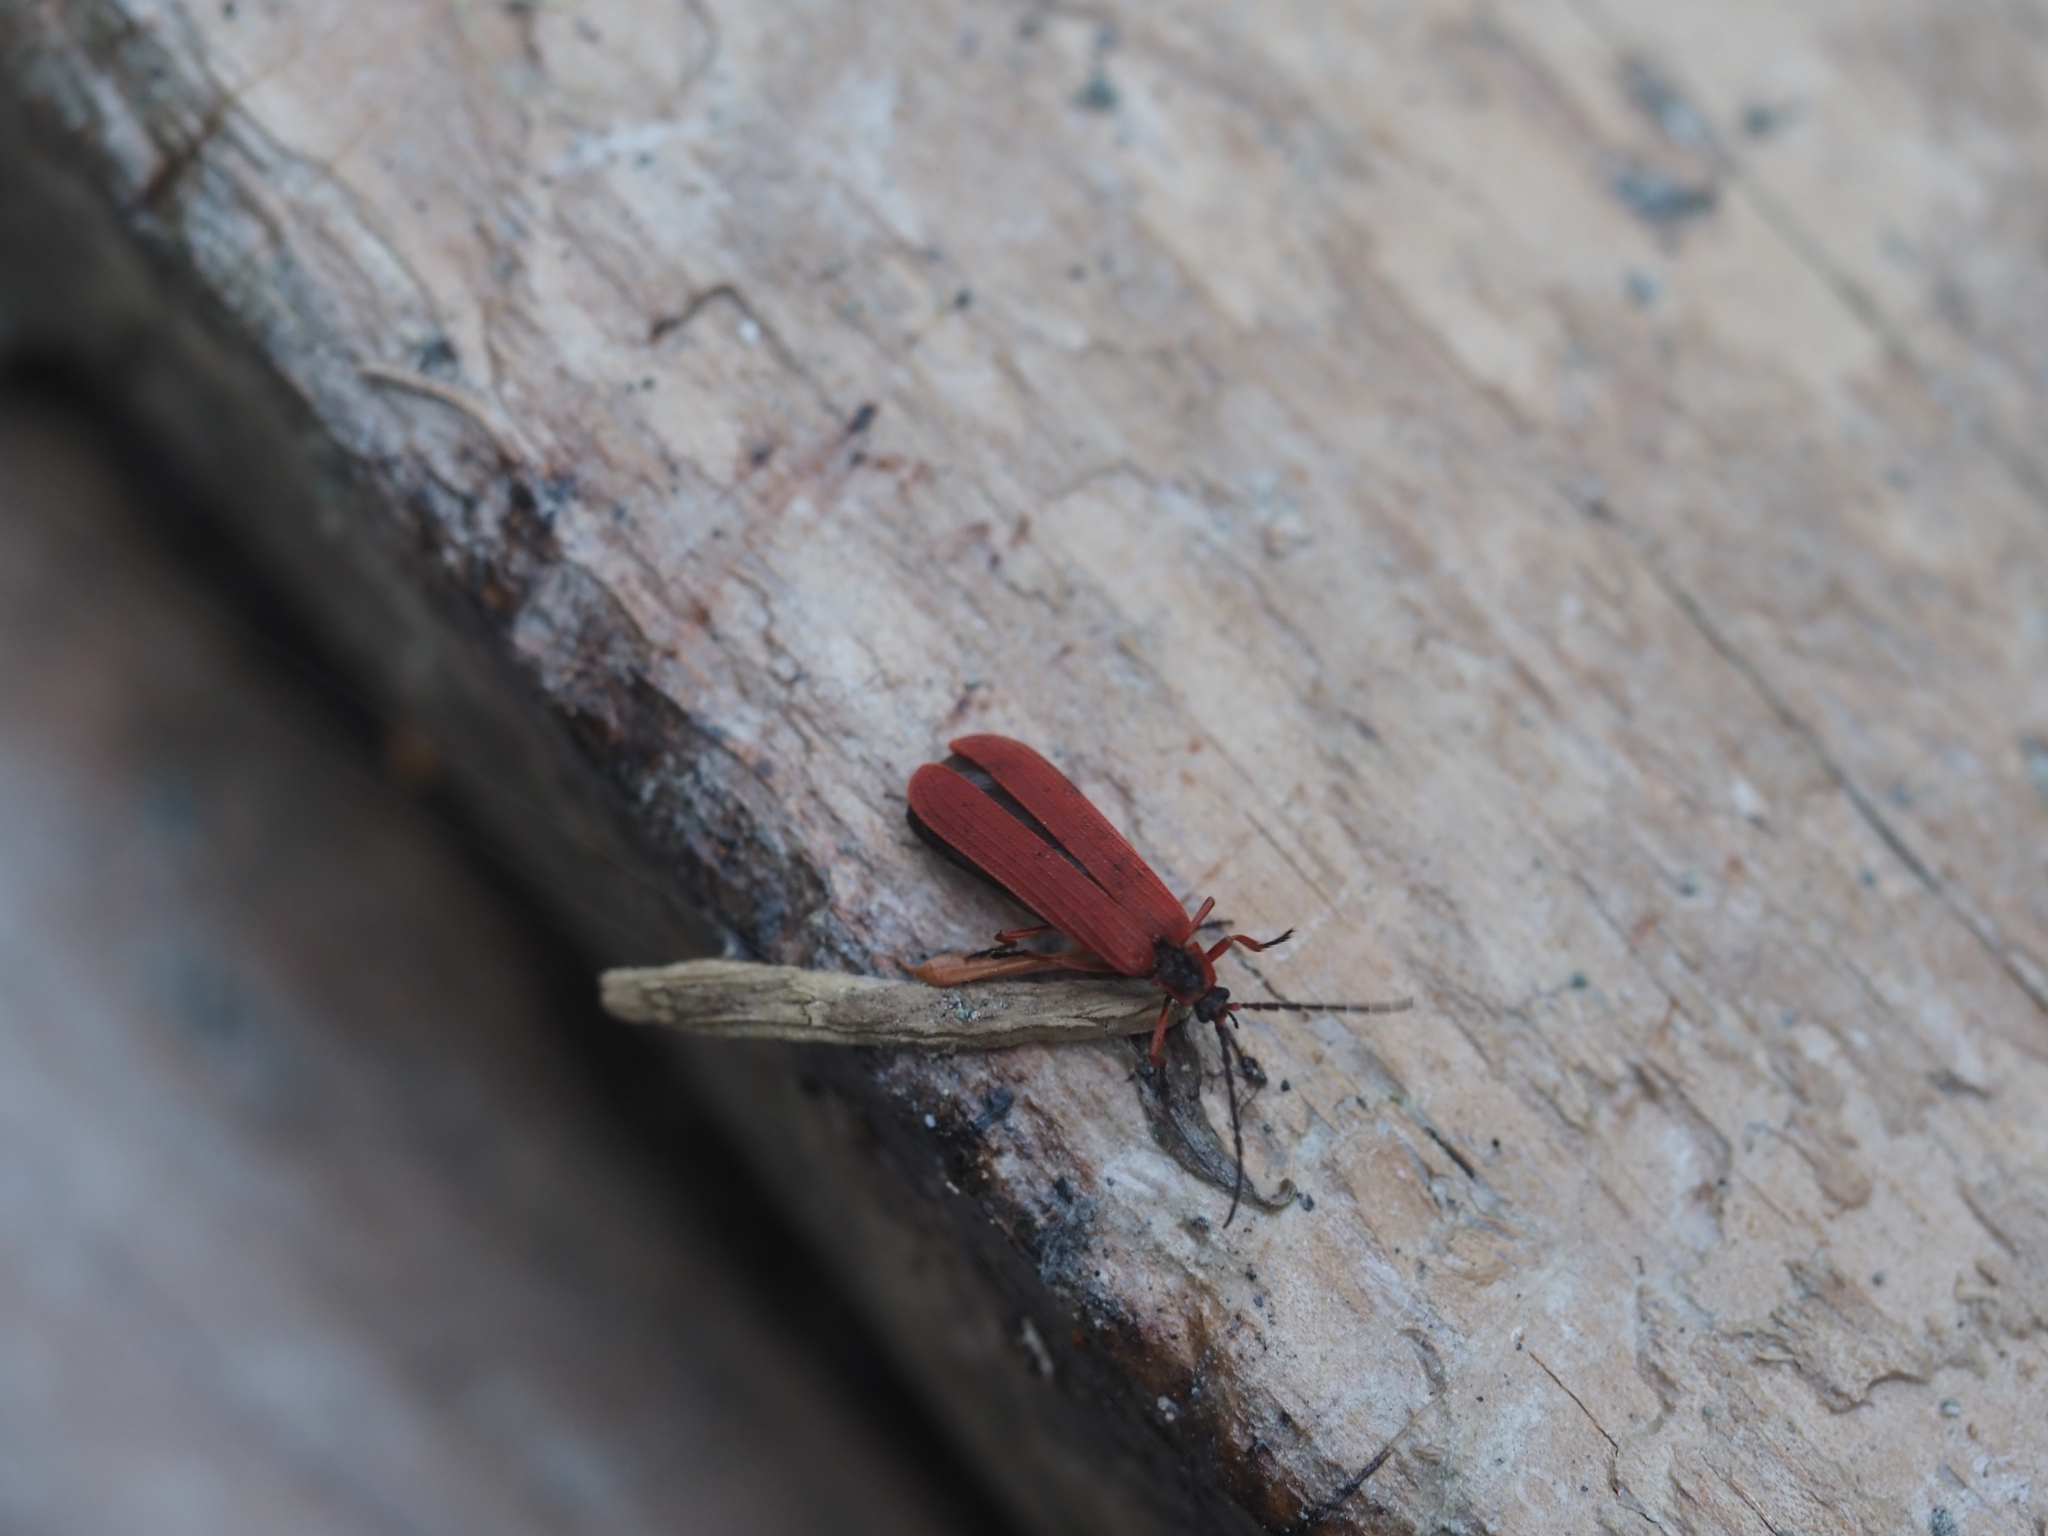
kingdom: Animalia
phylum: Arthropoda
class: Insecta
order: Coleoptera
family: Lycidae
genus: Dictyoptera
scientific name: Dictyoptera simplicipes
